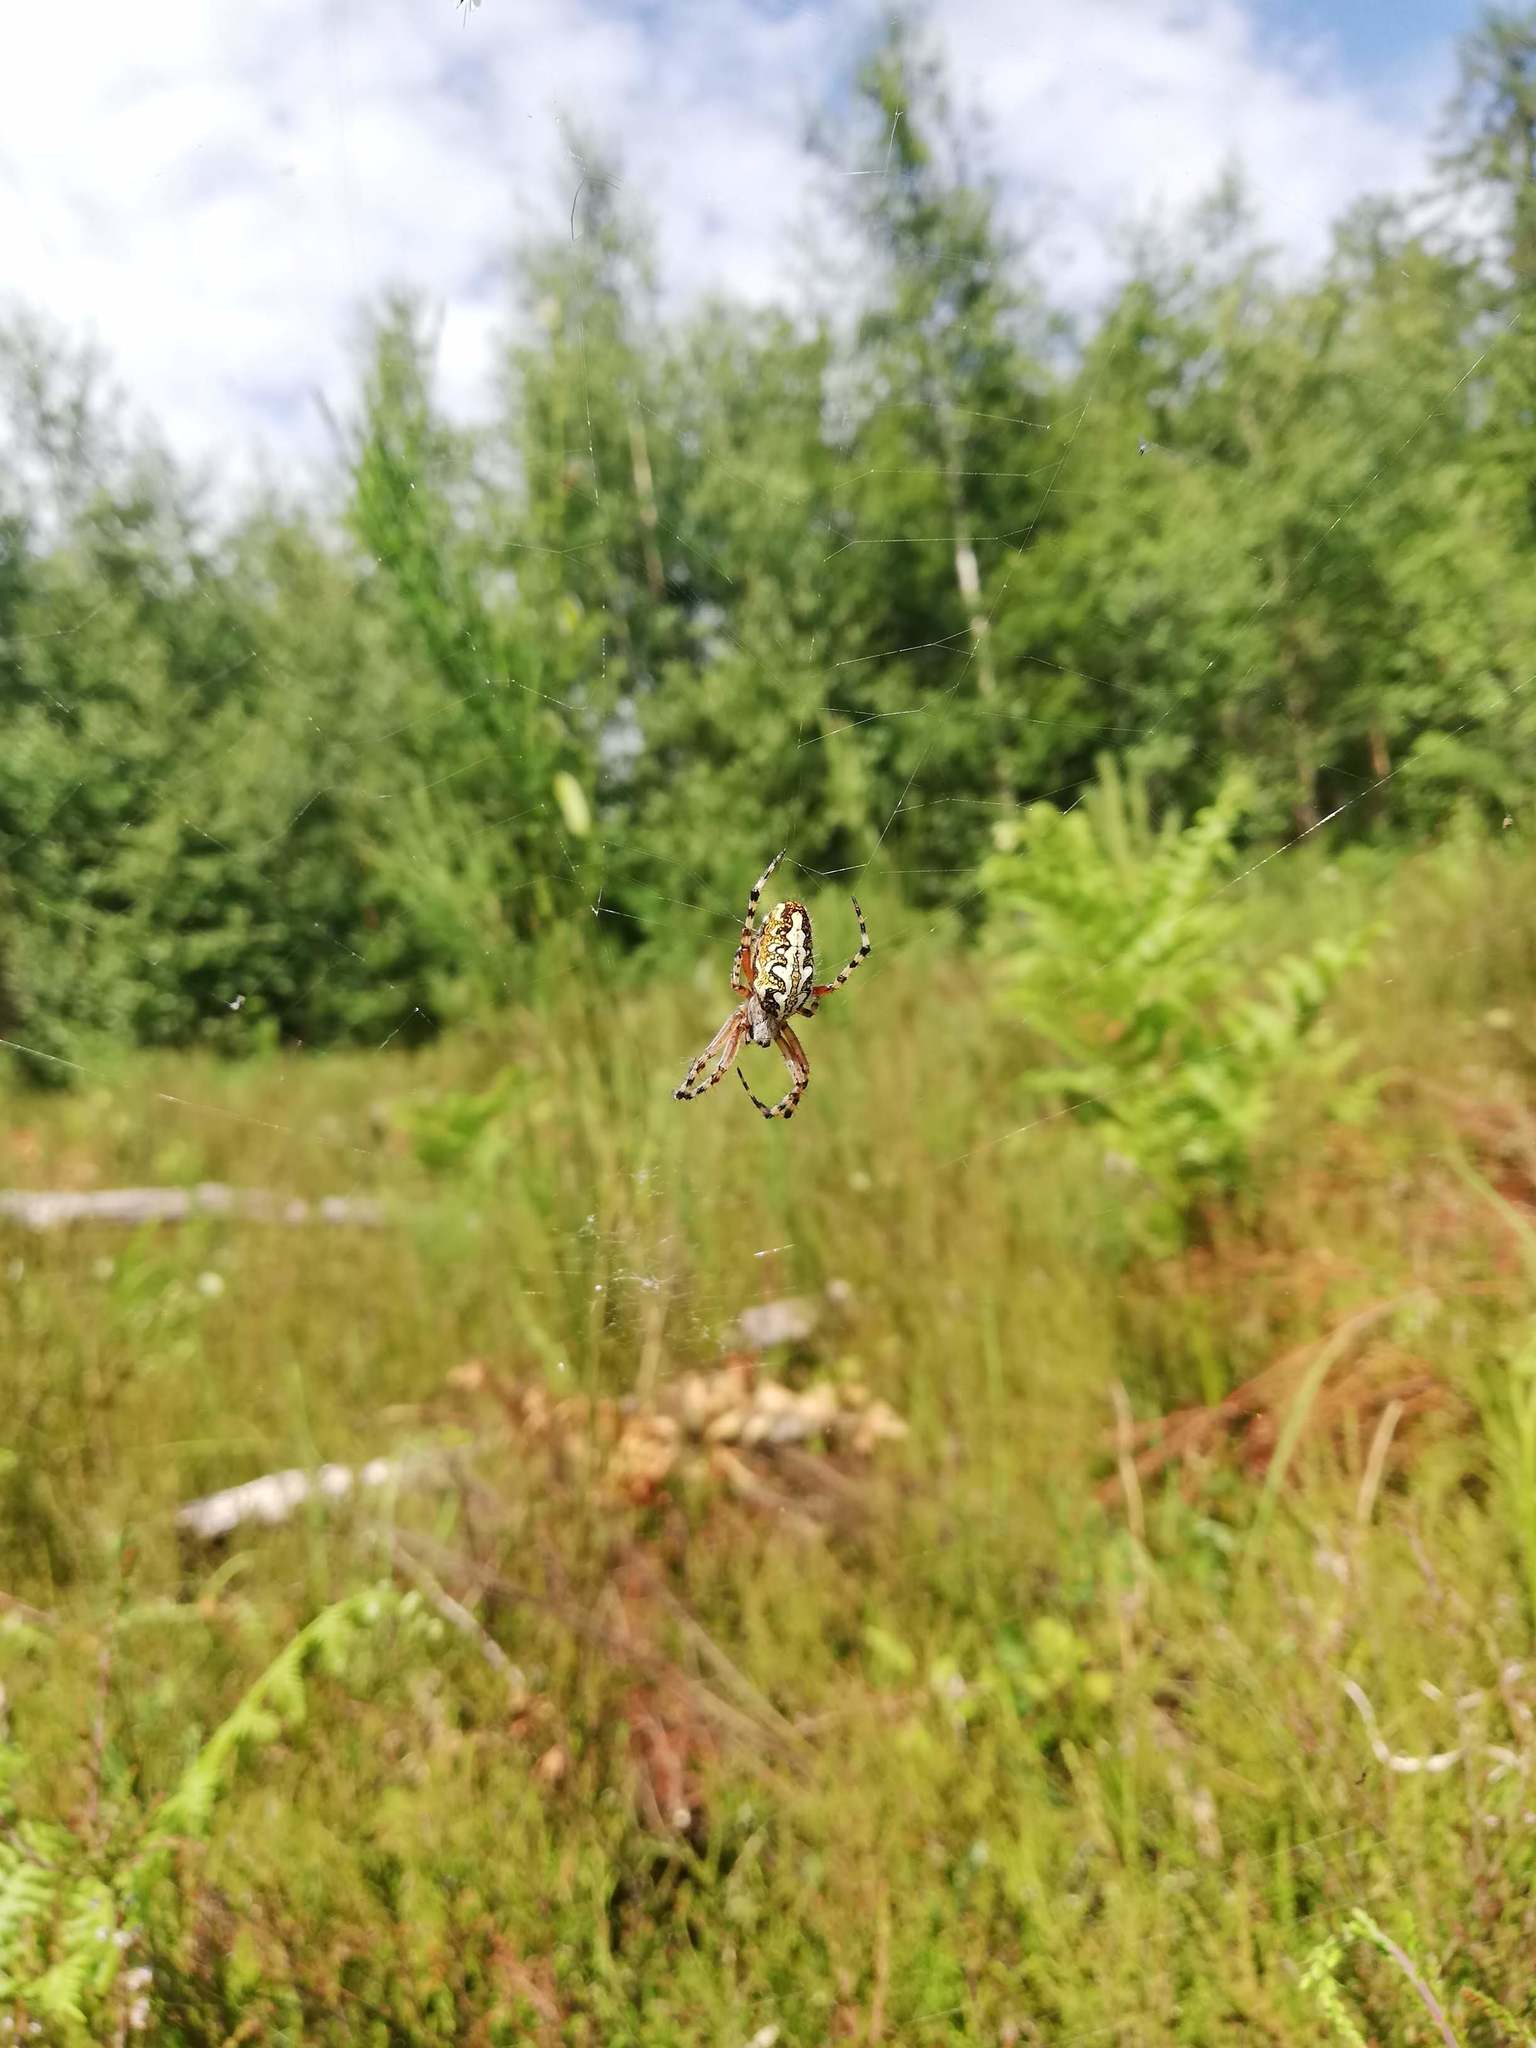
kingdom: Animalia
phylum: Arthropoda
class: Arachnida
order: Araneae
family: Araneidae
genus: Aculepeira
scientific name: Aculepeira ceropegia
